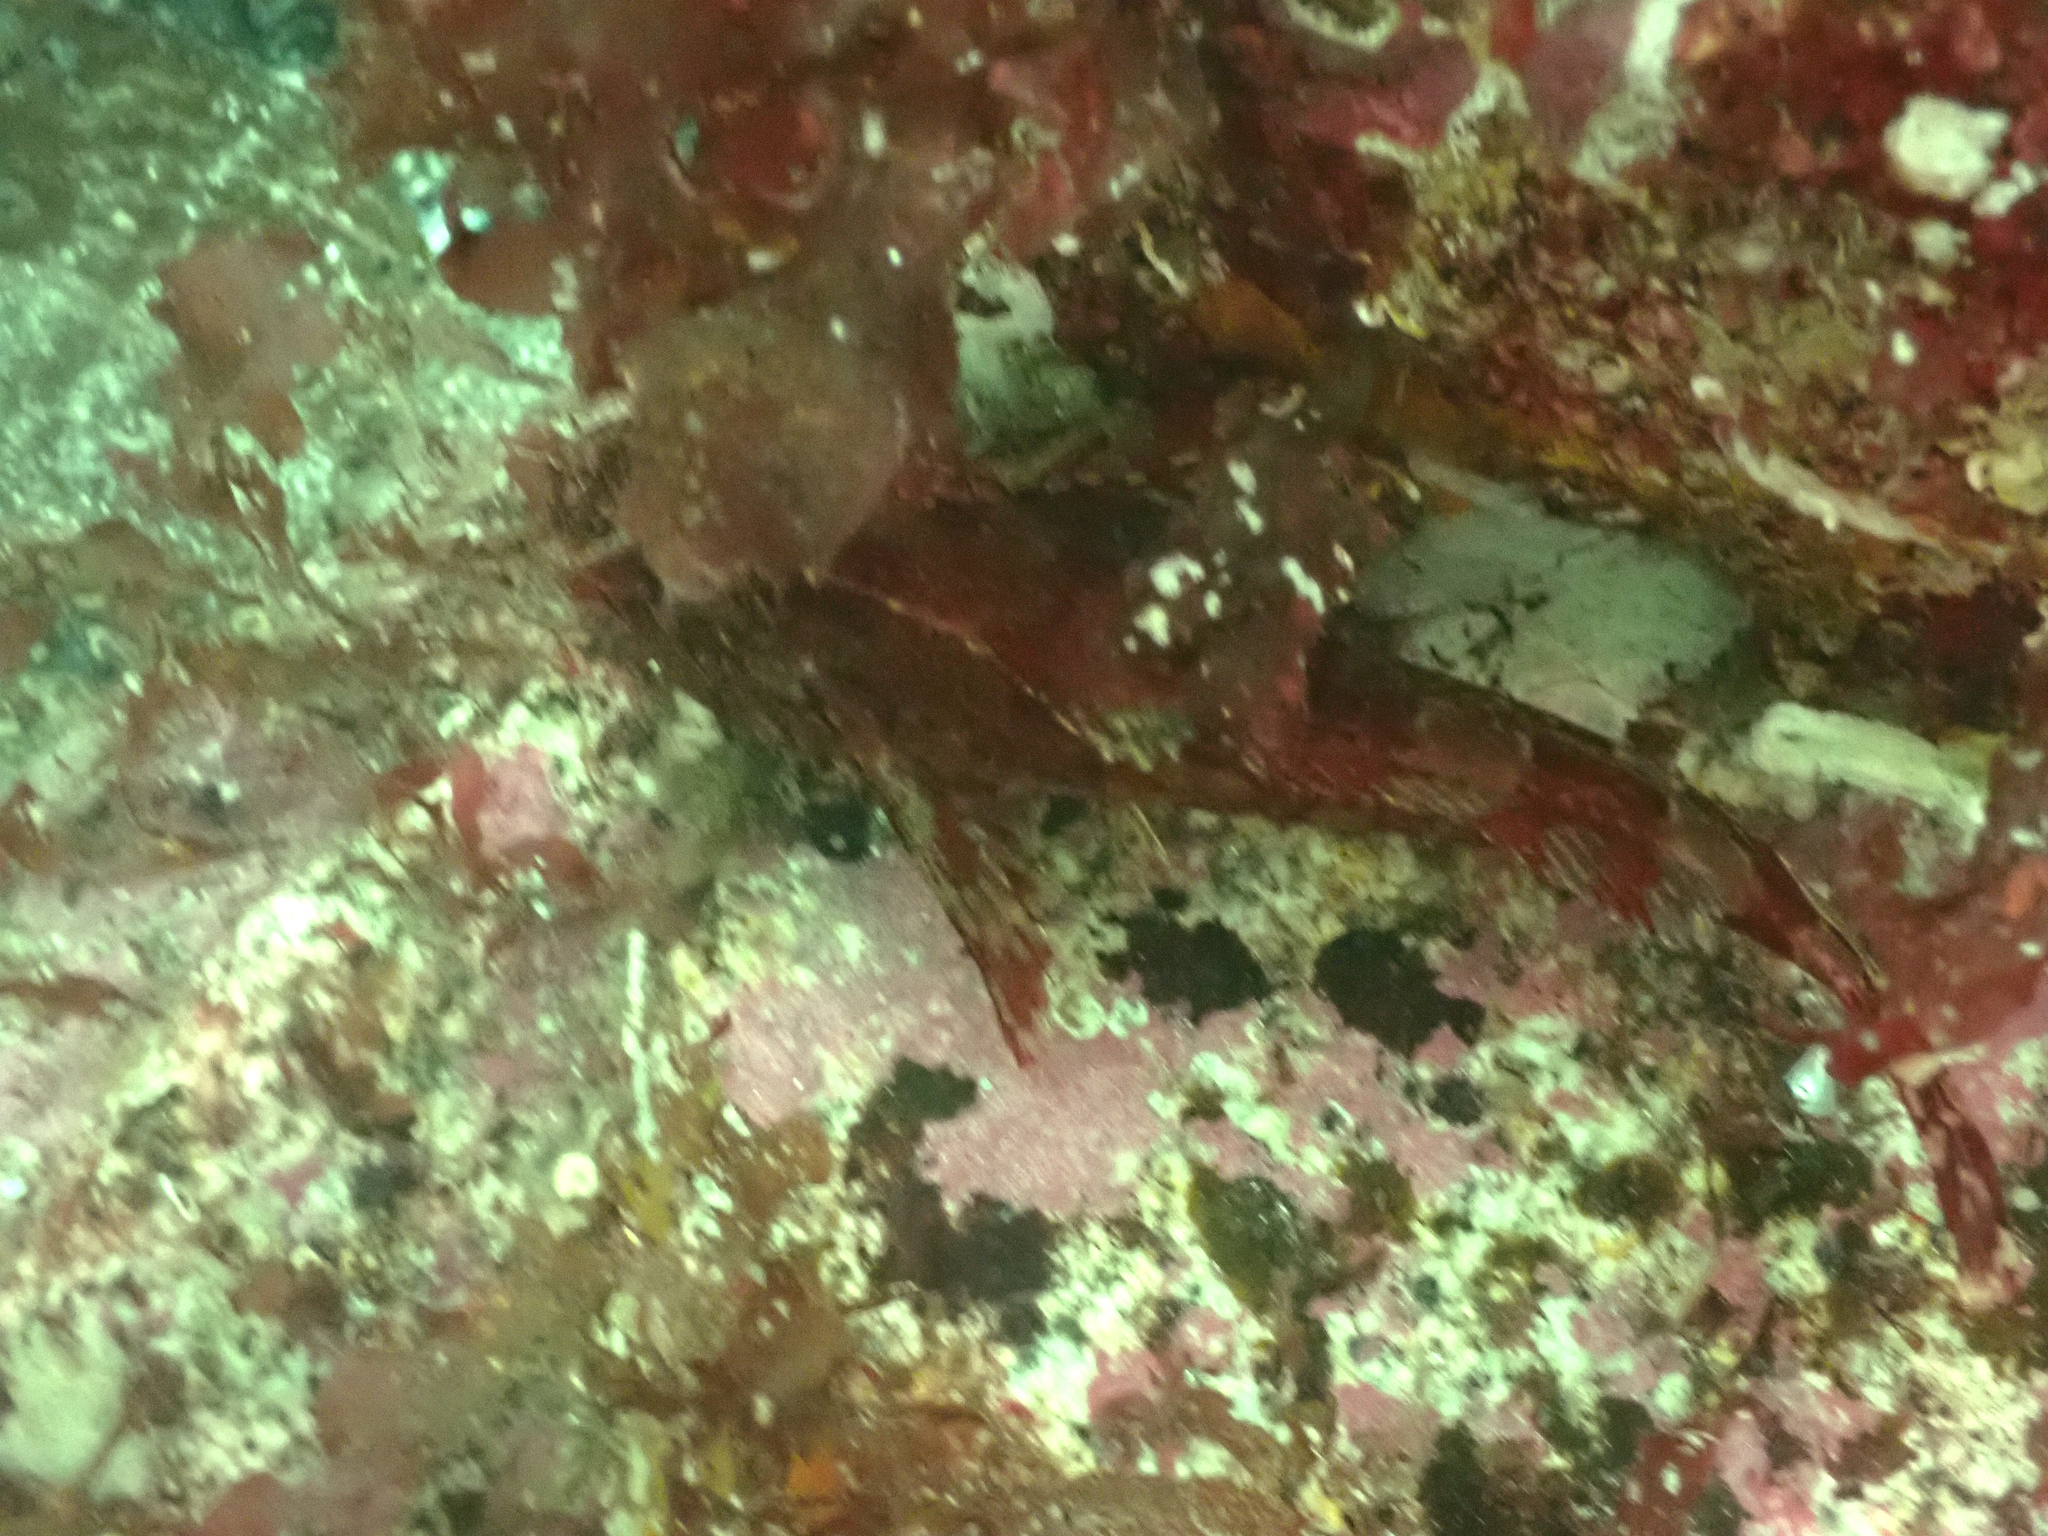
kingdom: Animalia
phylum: Chordata
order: Scorpaeniformes
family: Cottidae
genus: Scorpaenichthys
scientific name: Scorpaenichthys marmoratus
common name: Cabezon
